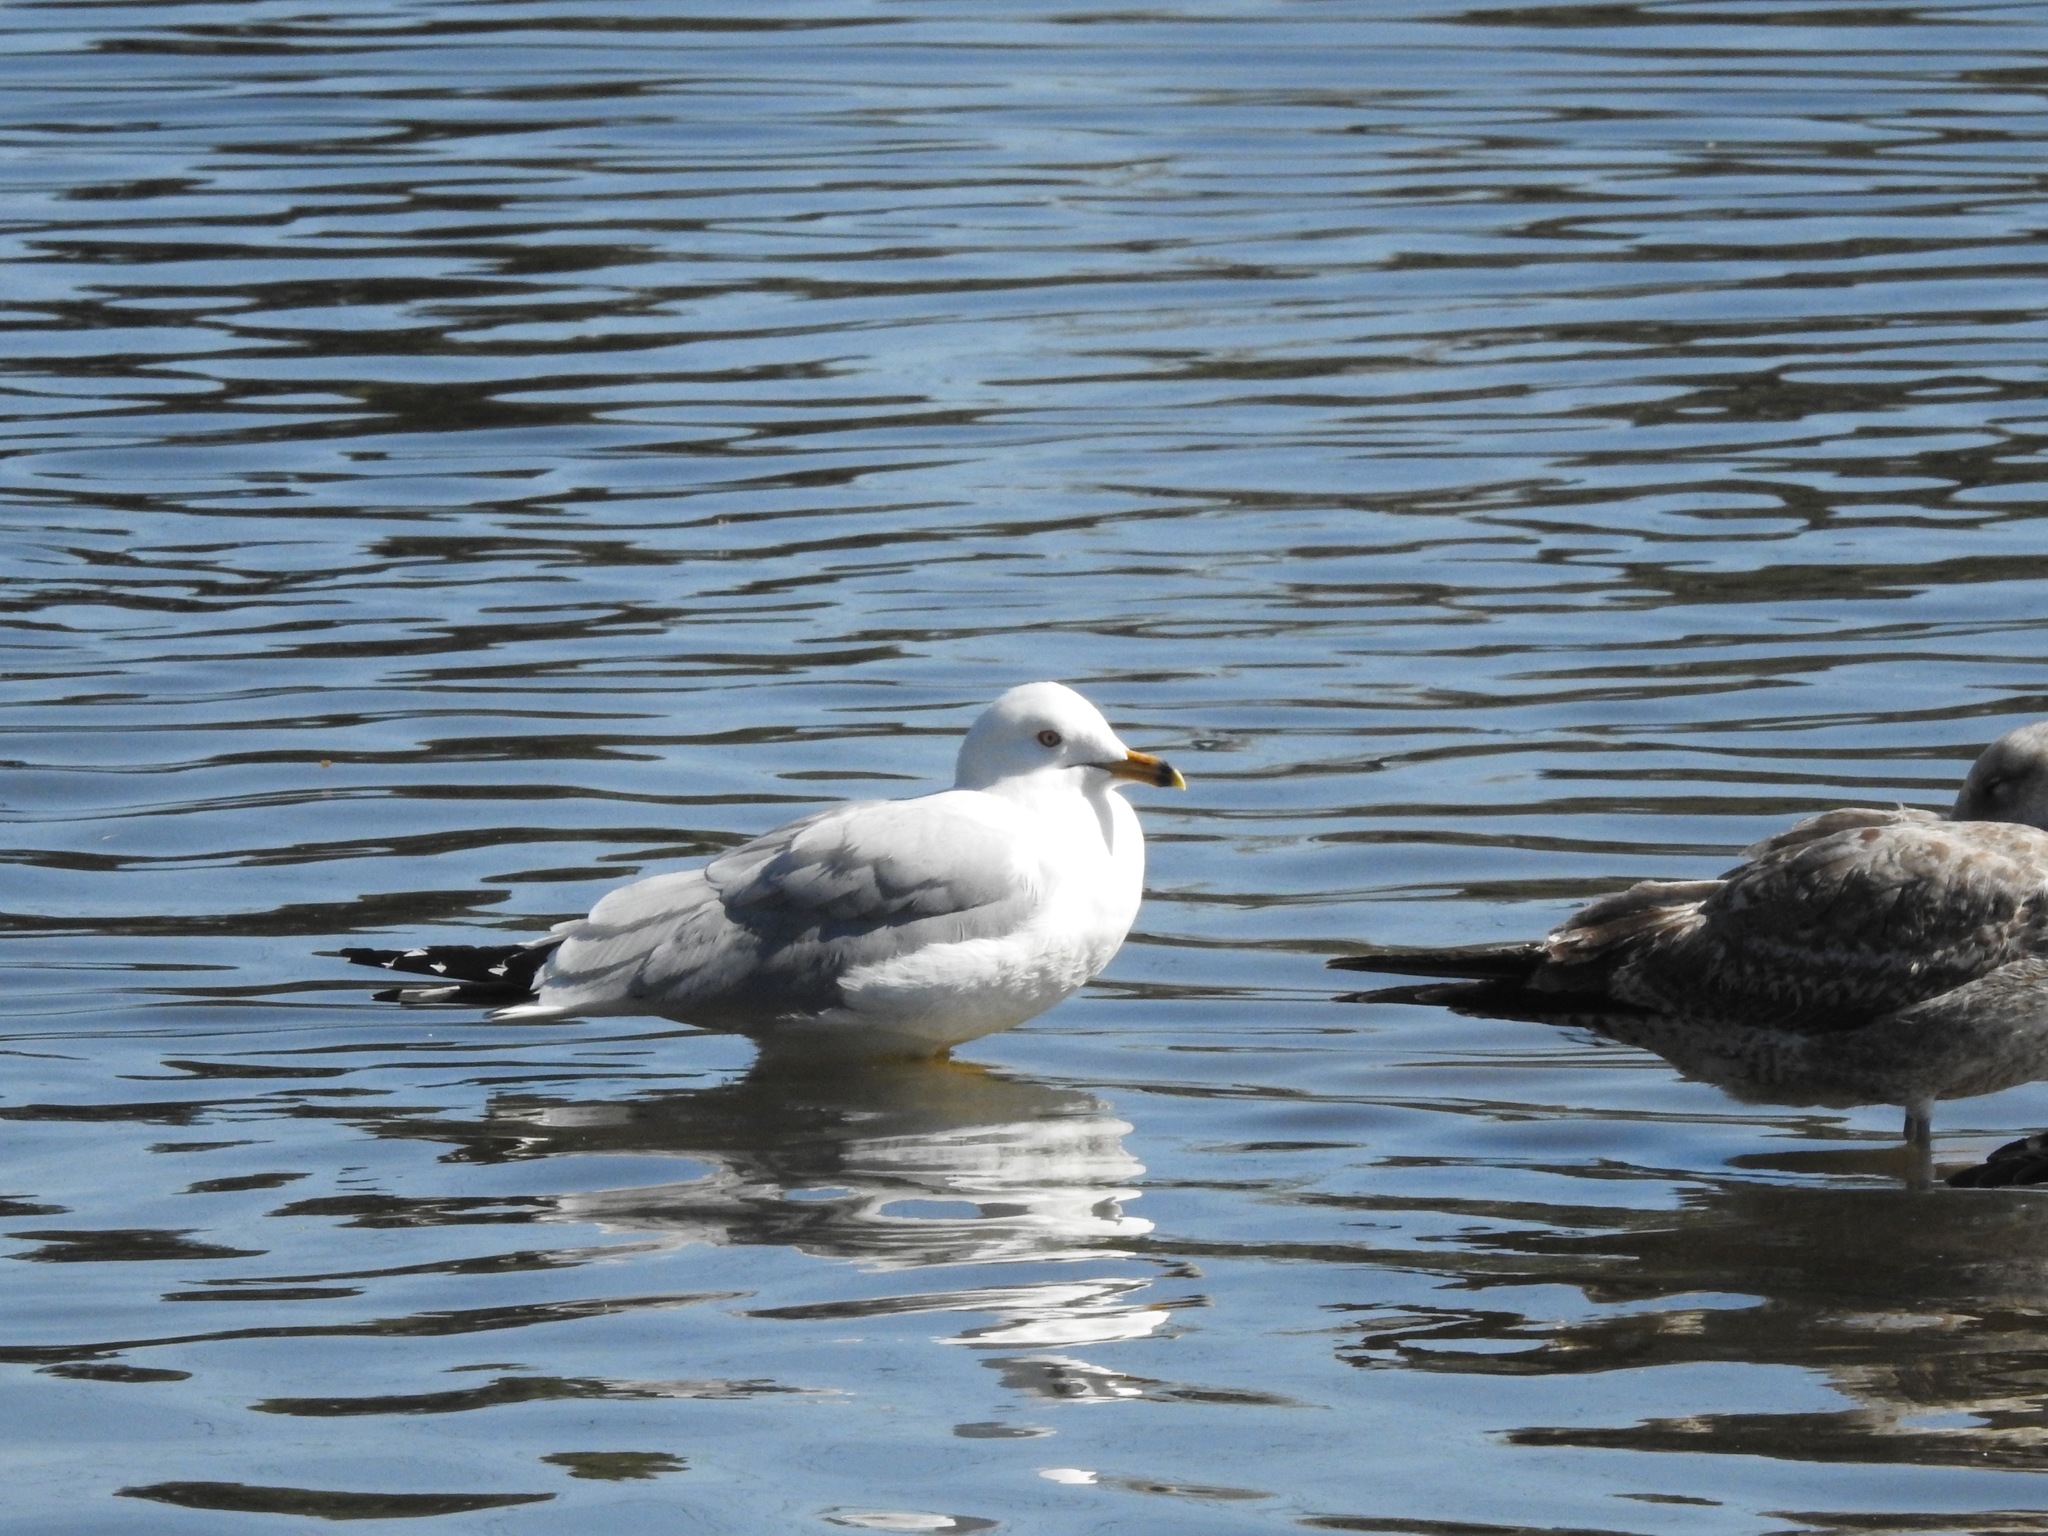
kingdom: Animalia
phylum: Chordata
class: Aves
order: Charadriiformes
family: Laridae
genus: Larus
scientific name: Larus delawarensis
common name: Ring-billed gull
